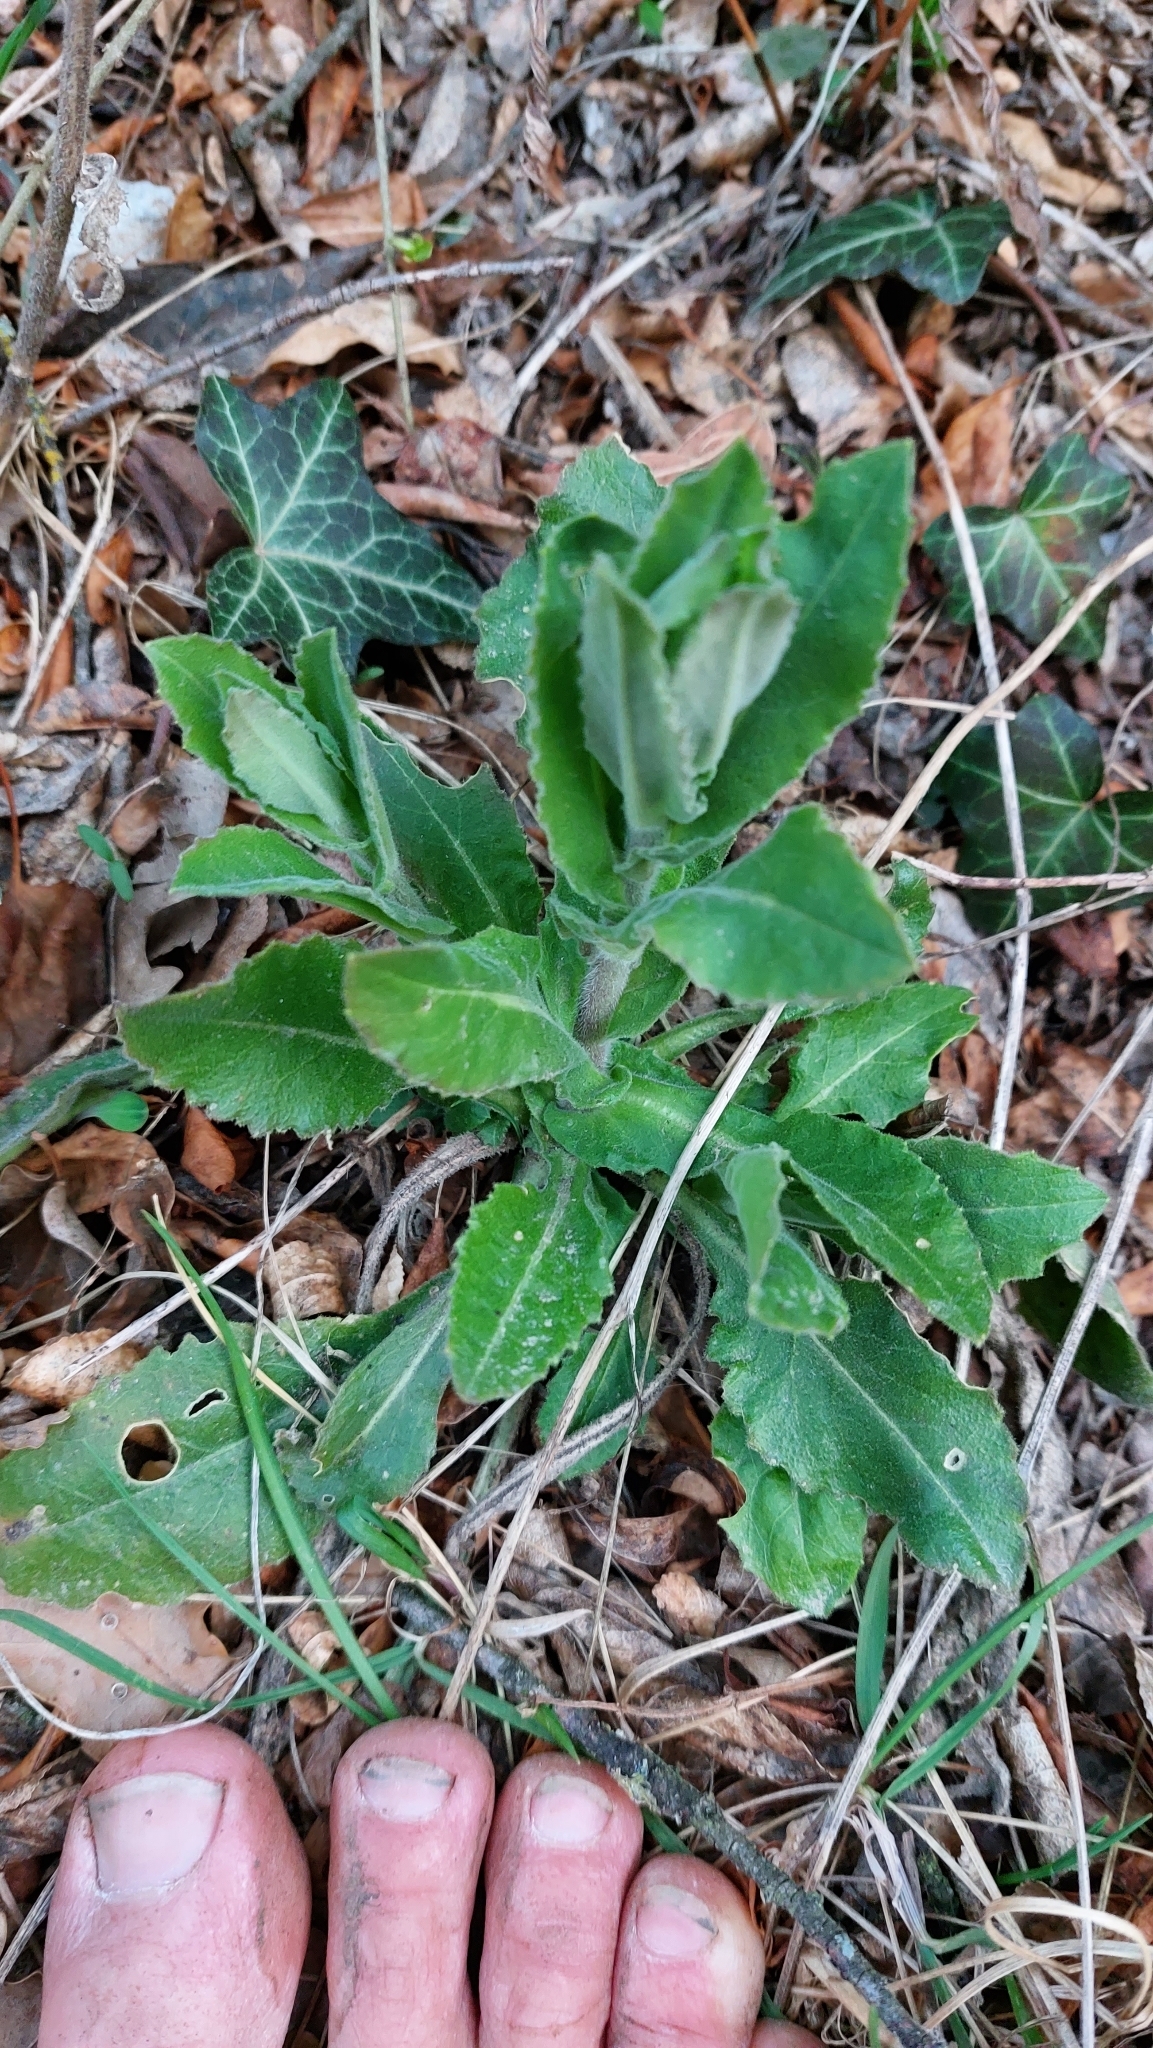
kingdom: Plantae
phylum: Tracheophyta
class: Magnoliopsida
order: Brassicales
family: Brassicaceae
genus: Pseudoturritis
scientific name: Pseudoturritis turrita
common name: Tower cress
